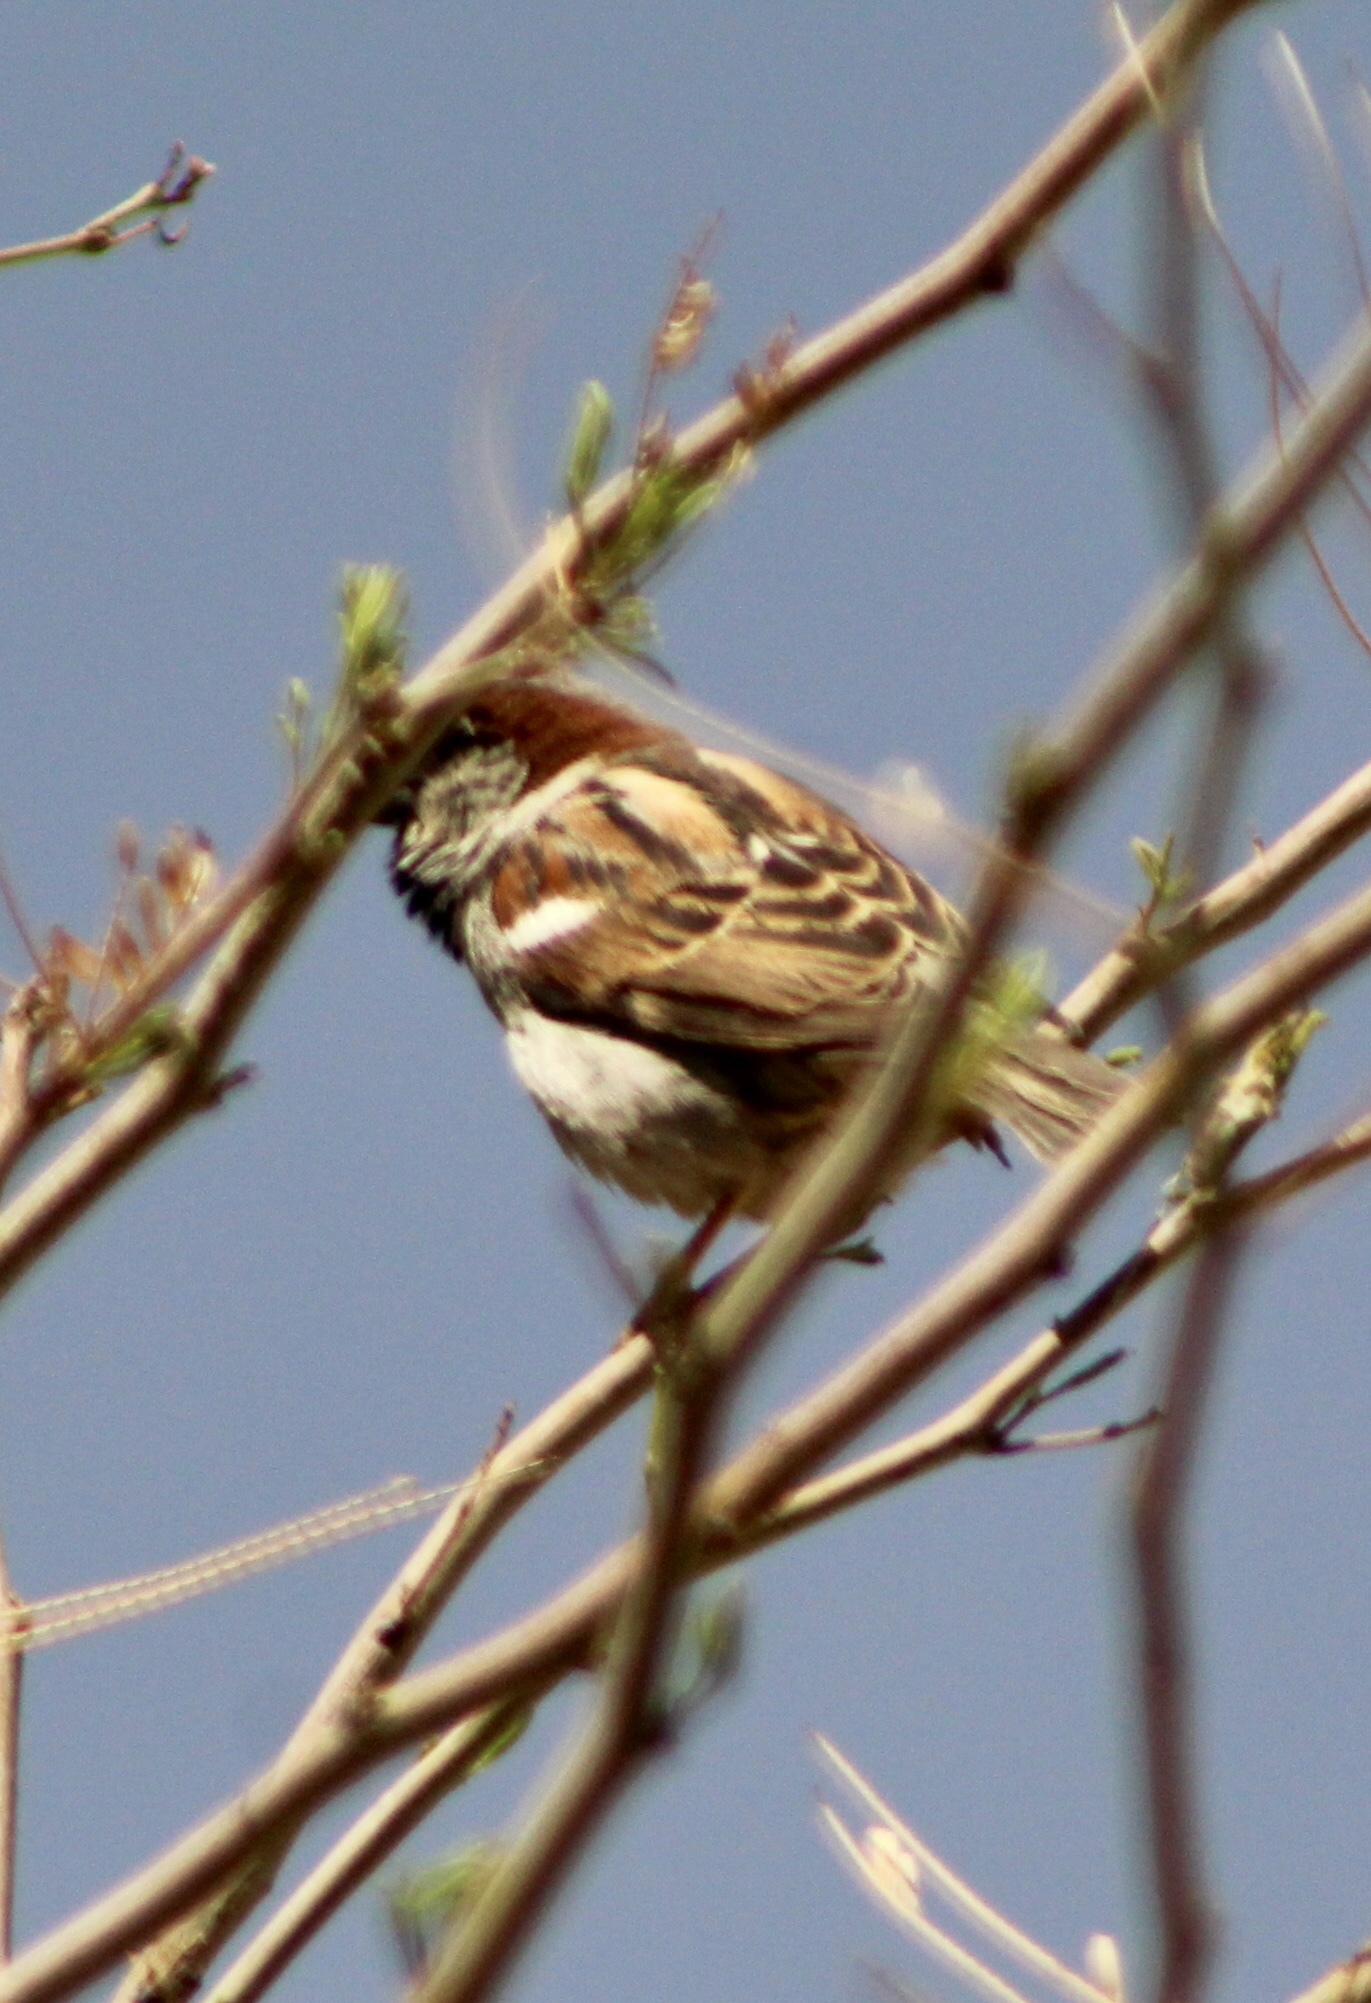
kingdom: Animalia
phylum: Chordata
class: Aves
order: Passeriformes
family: Passeridae
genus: Passer
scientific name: Passer domesticus
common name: House sparrow
